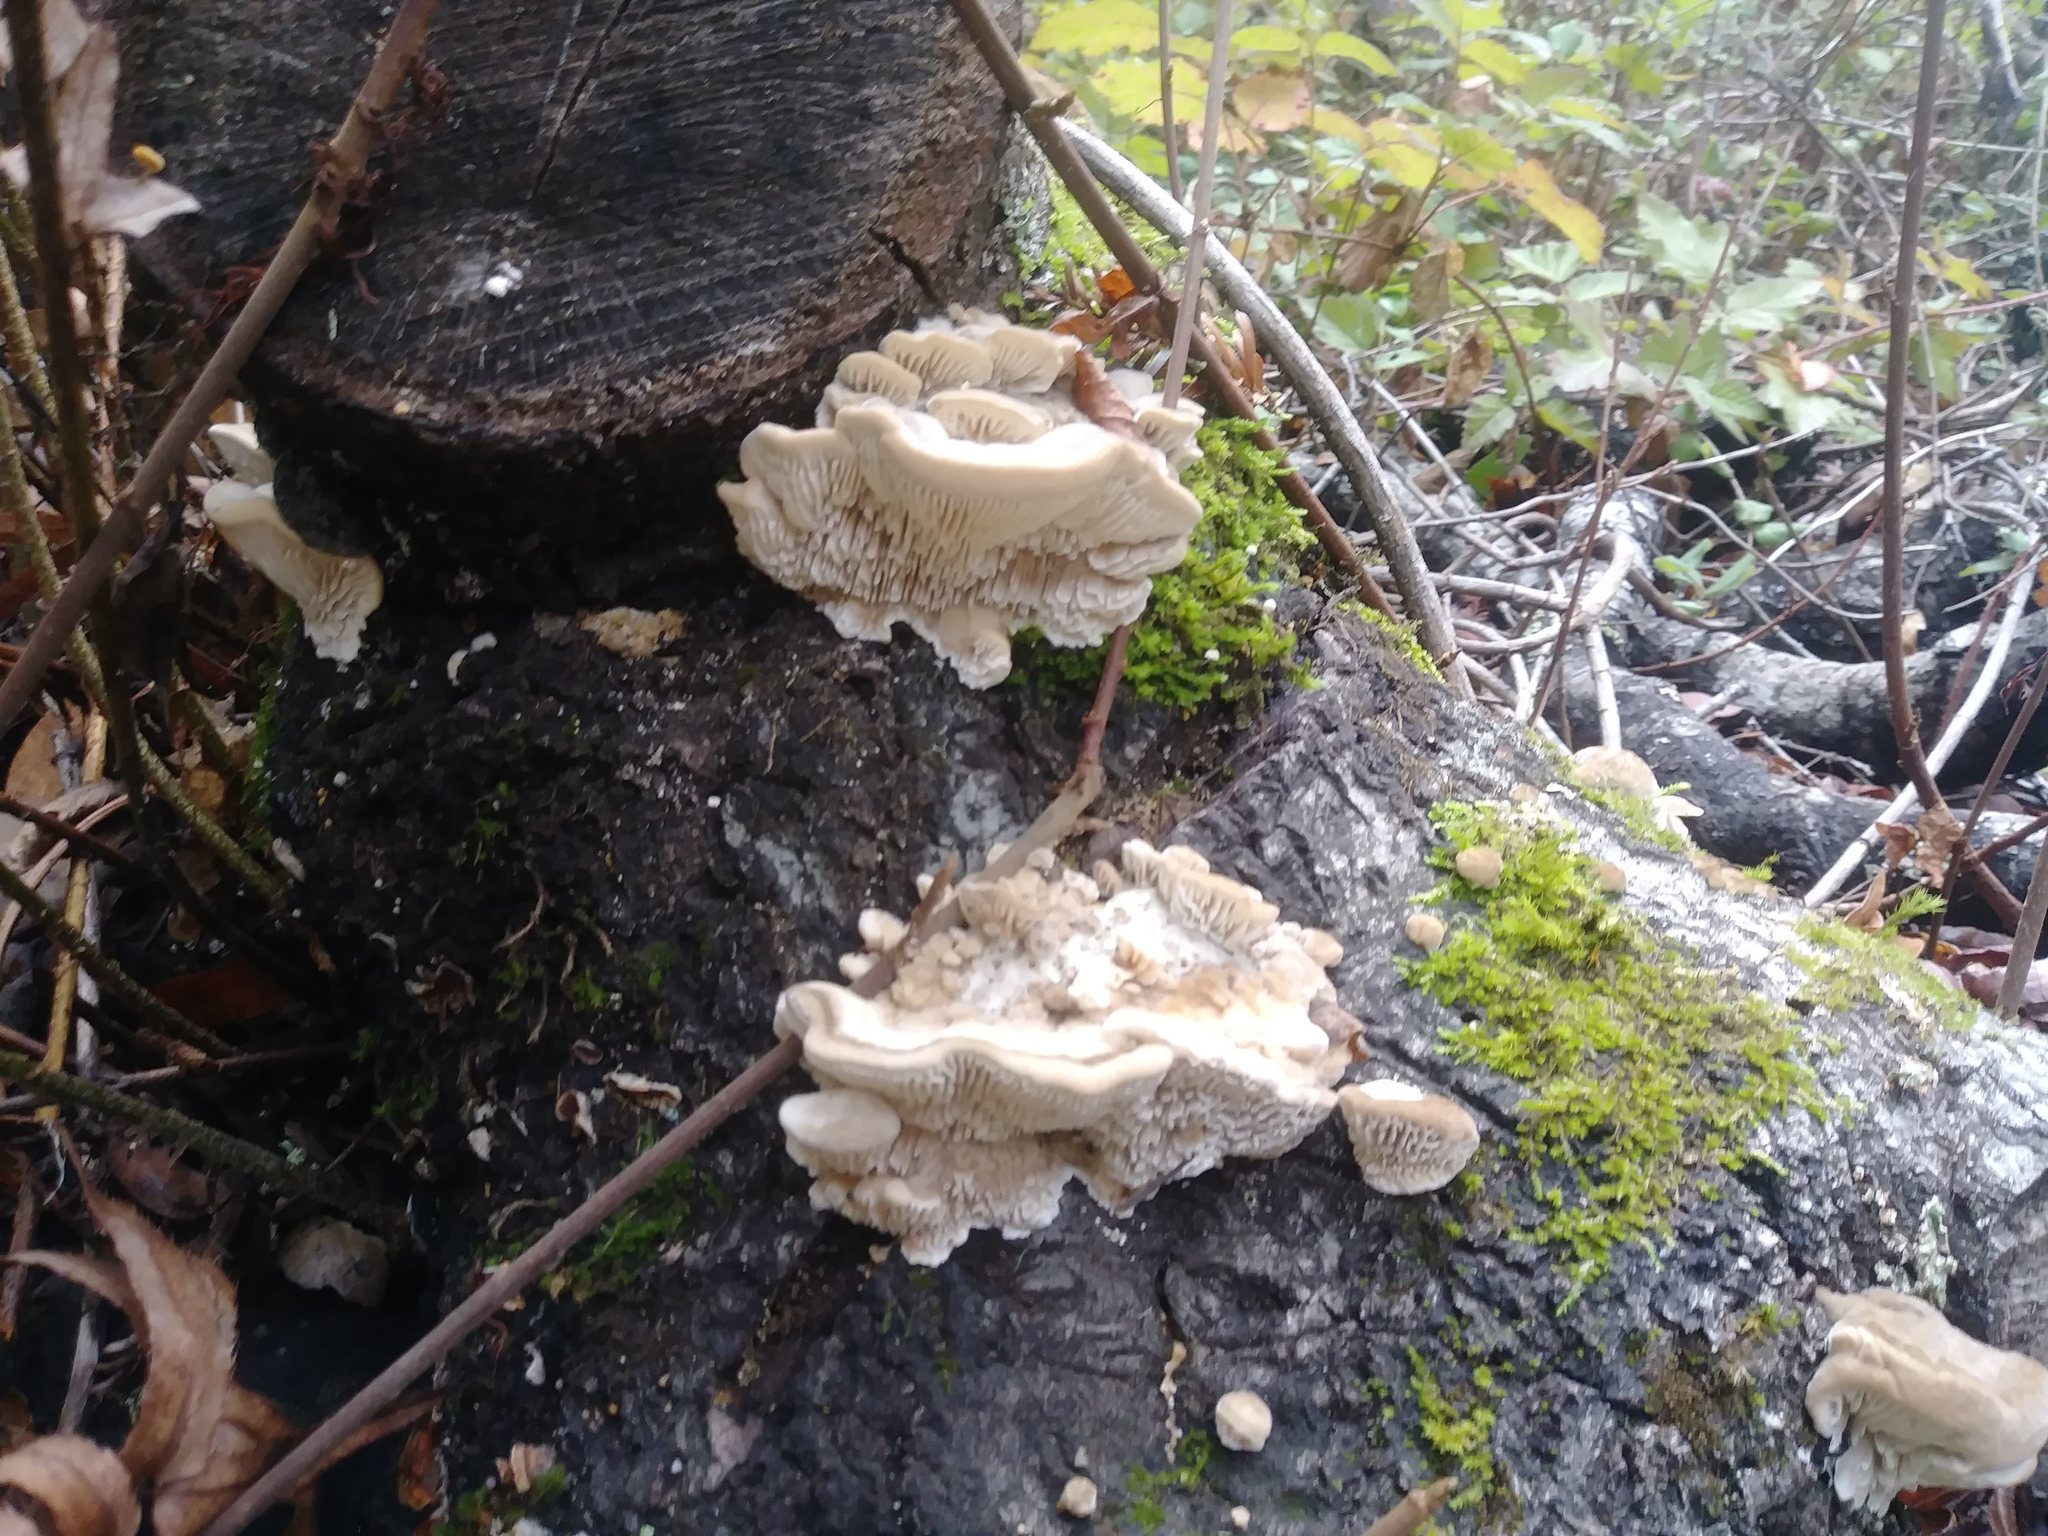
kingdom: Fungi
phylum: Basidiomycota
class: Agaricomycetes
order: Polyporales
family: Polyporaceae
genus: Lenzites
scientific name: Lenzites betulinus
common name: Birch mazegill
